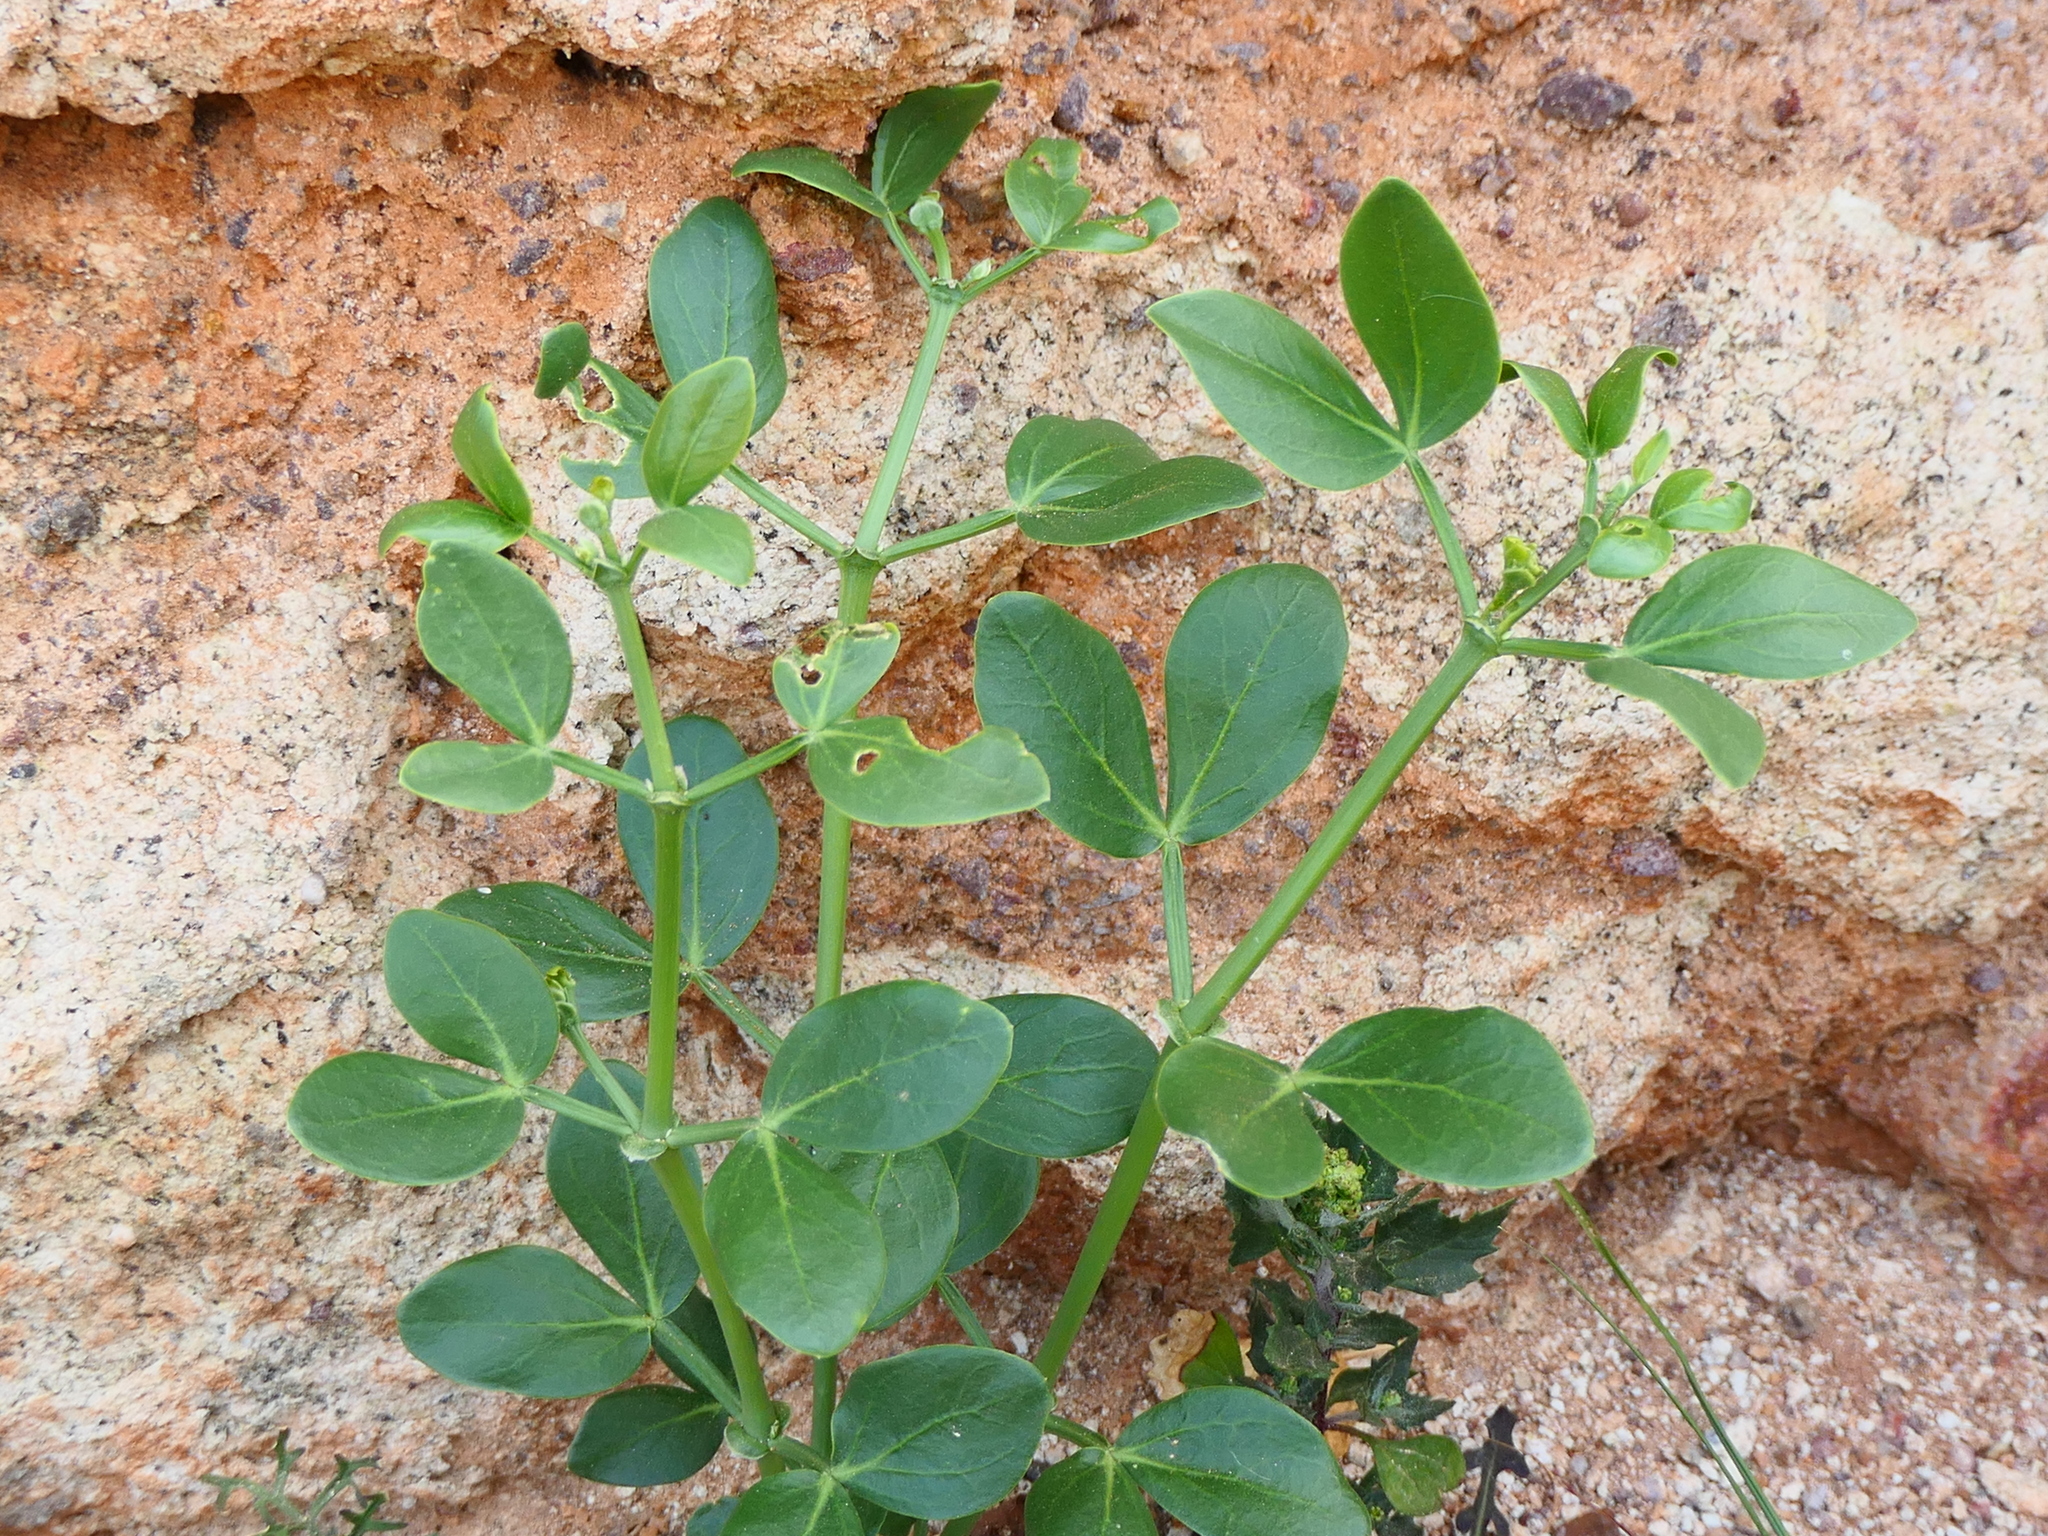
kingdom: Plantae
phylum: Tracheophyta
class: Magnoliopsida
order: Zygophyllales
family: Zygophyllaceae
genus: Zygophyllum
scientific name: Zygophyllum fabago
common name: Syrian beancaper
